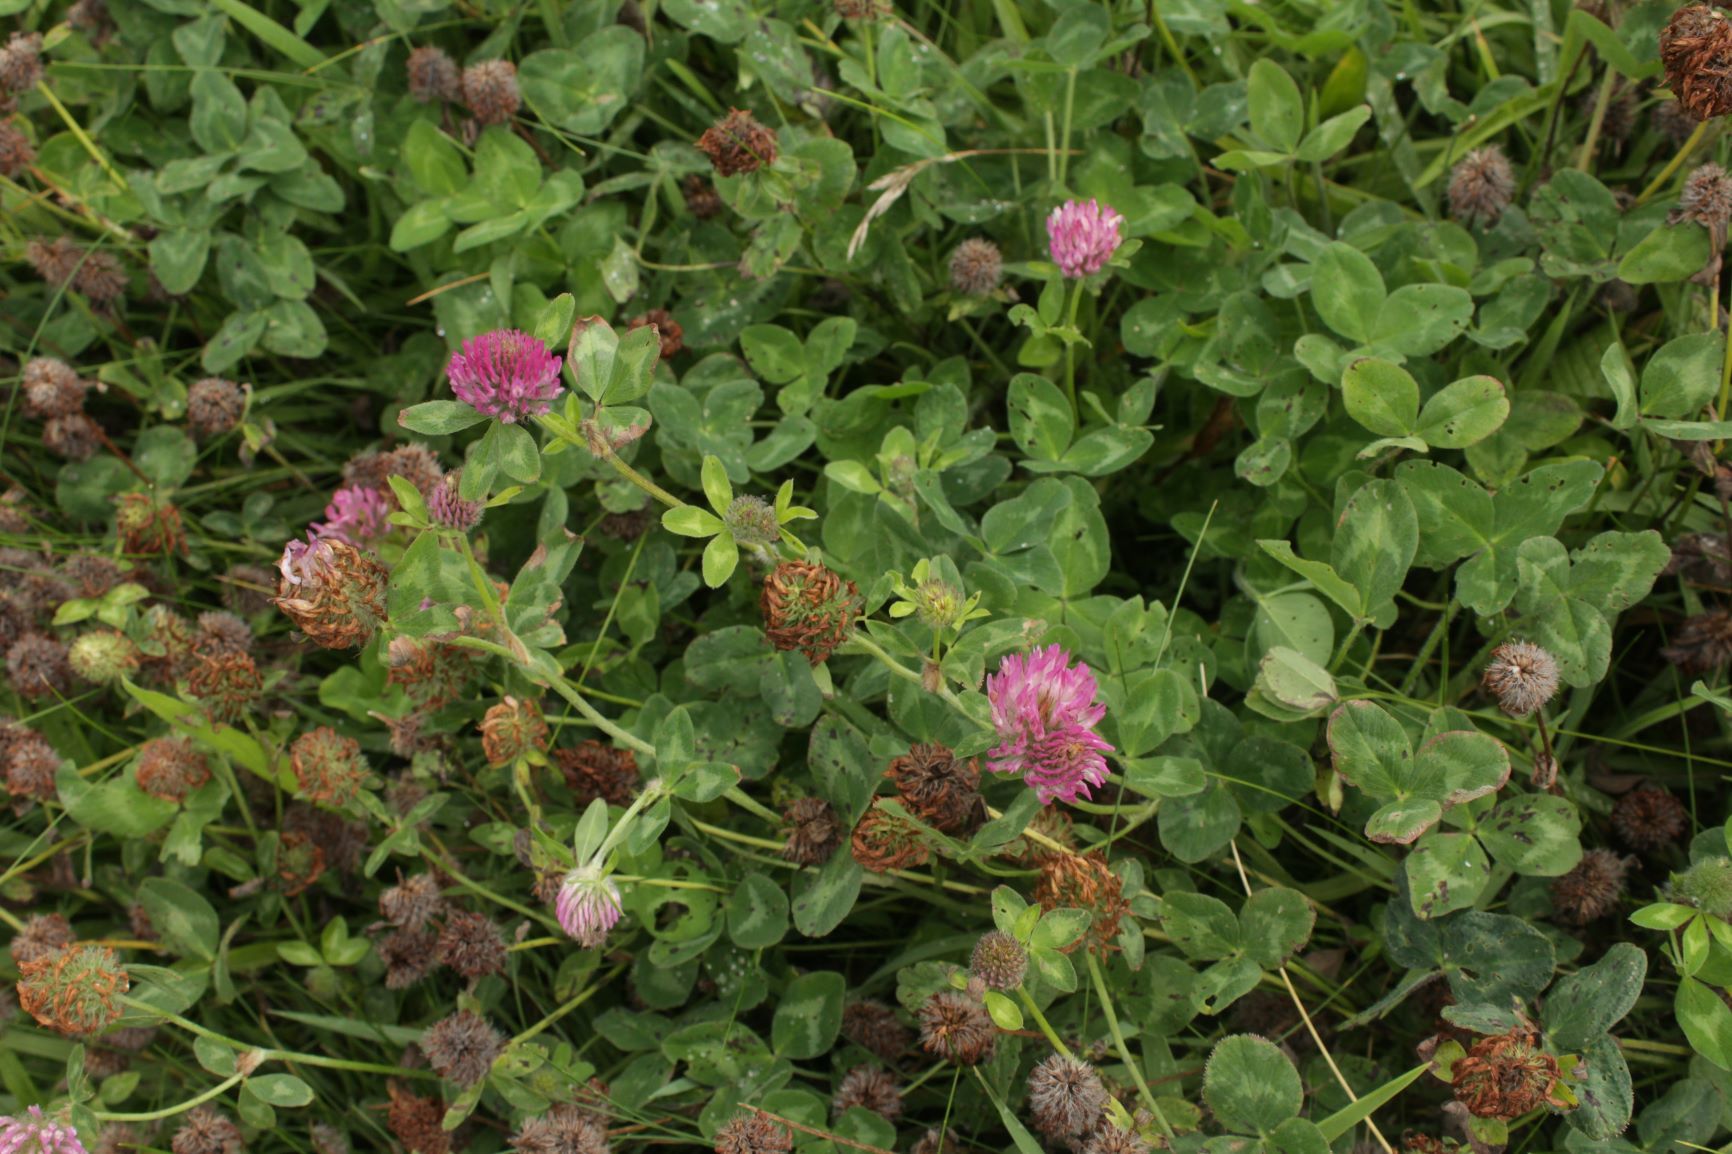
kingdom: Plantae
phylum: Tracheophyta
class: Magnoliopsida
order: Fabales
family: Fabaceae
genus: Trifolium
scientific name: Trifolium pratense
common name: Red clover
